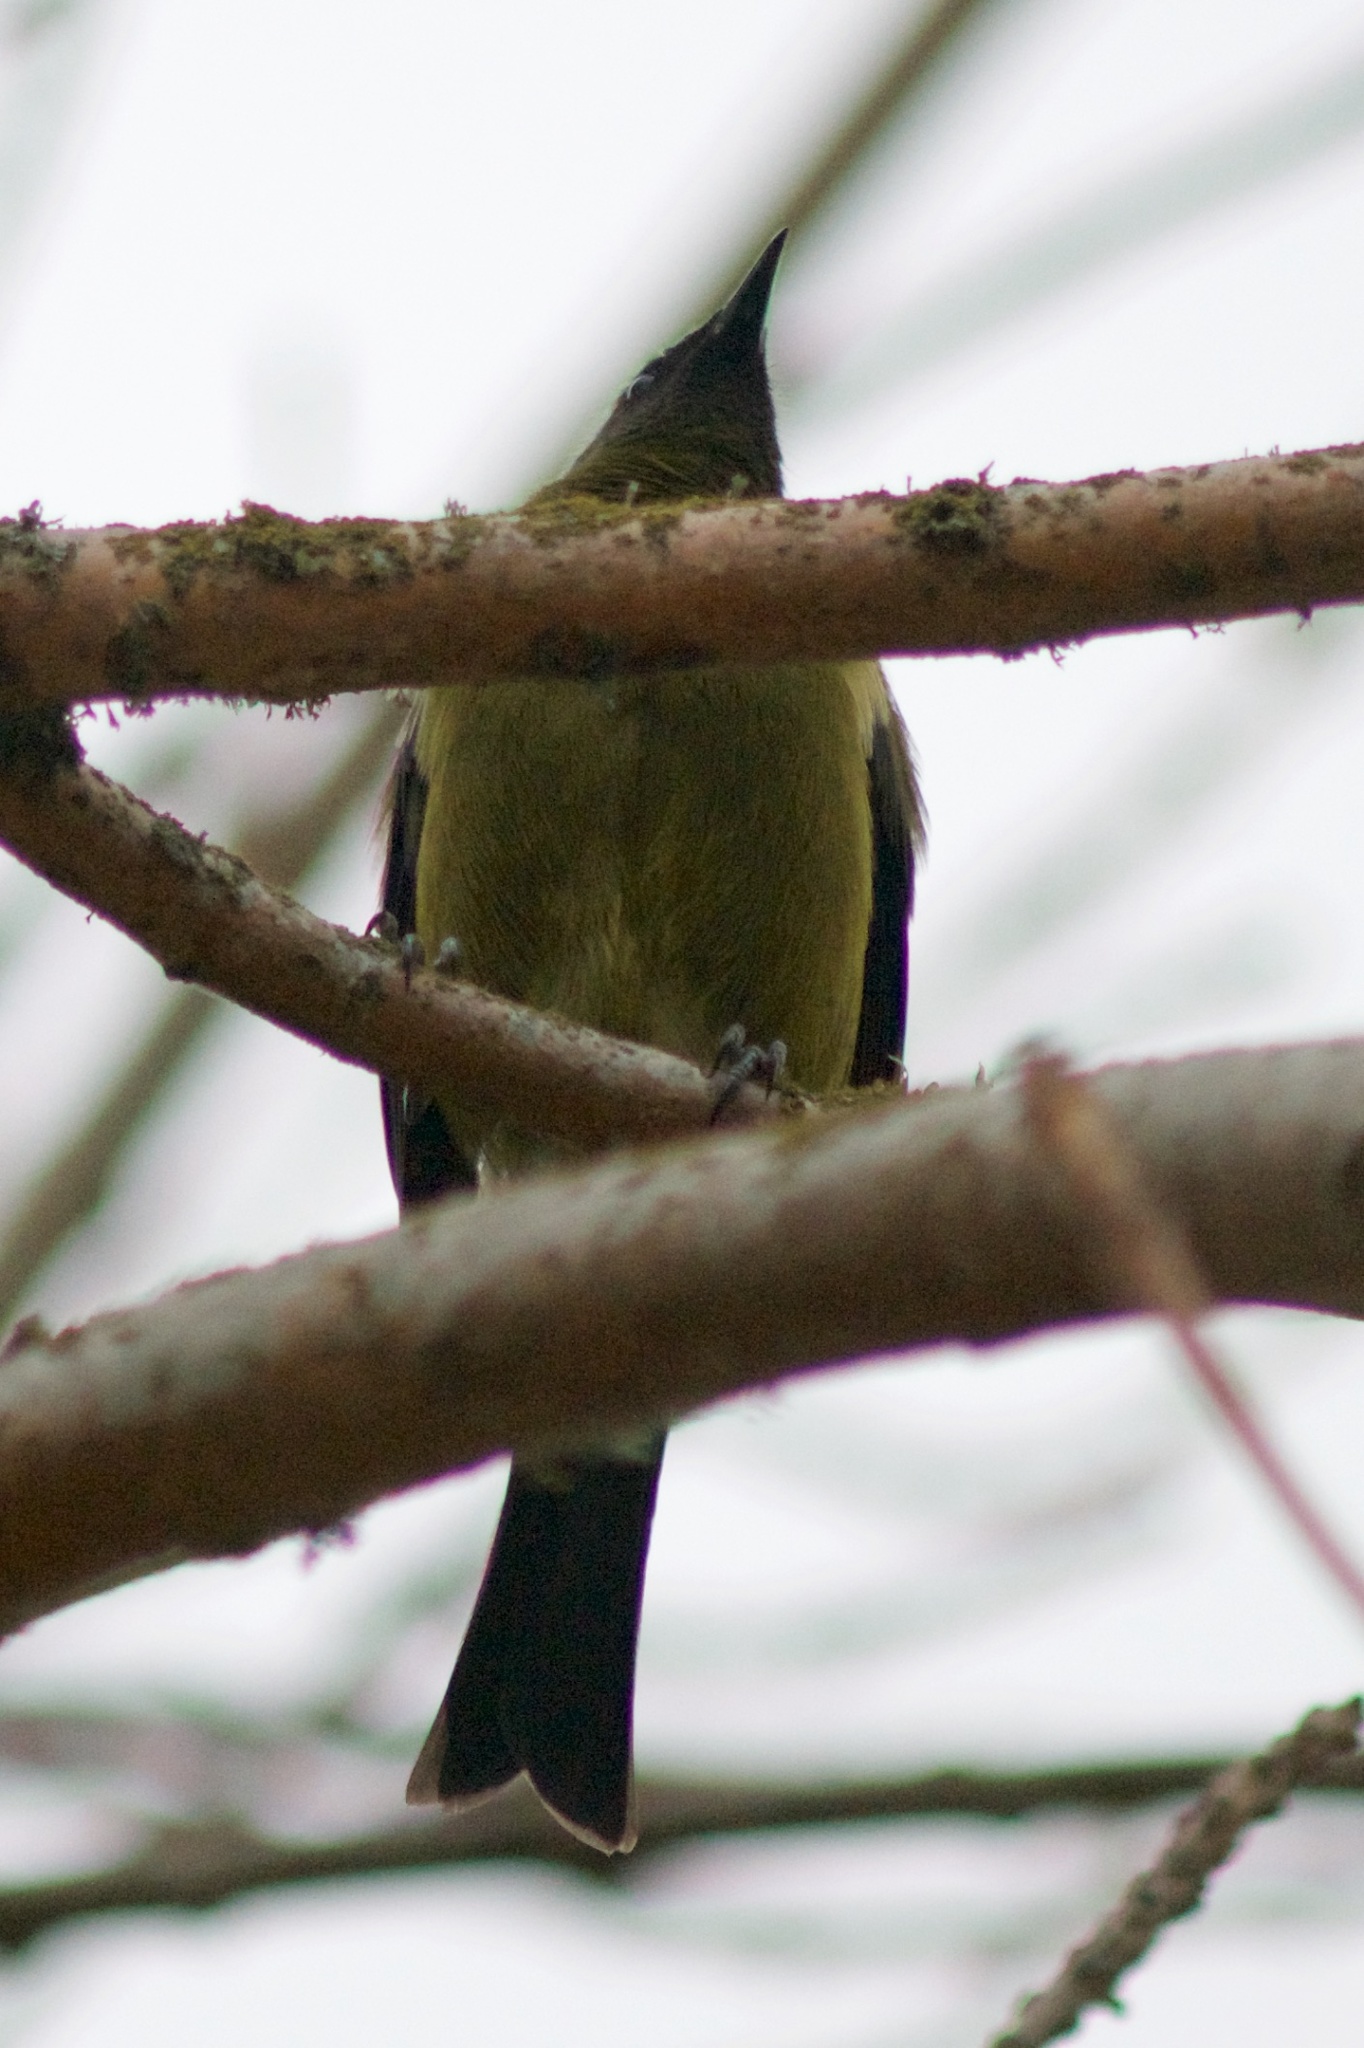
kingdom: Animalia
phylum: Chordata
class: Aves
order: Passeriformes
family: Meliphagidae
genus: Anthornis
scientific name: Anthornis melanura
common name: New zealand bellbird
